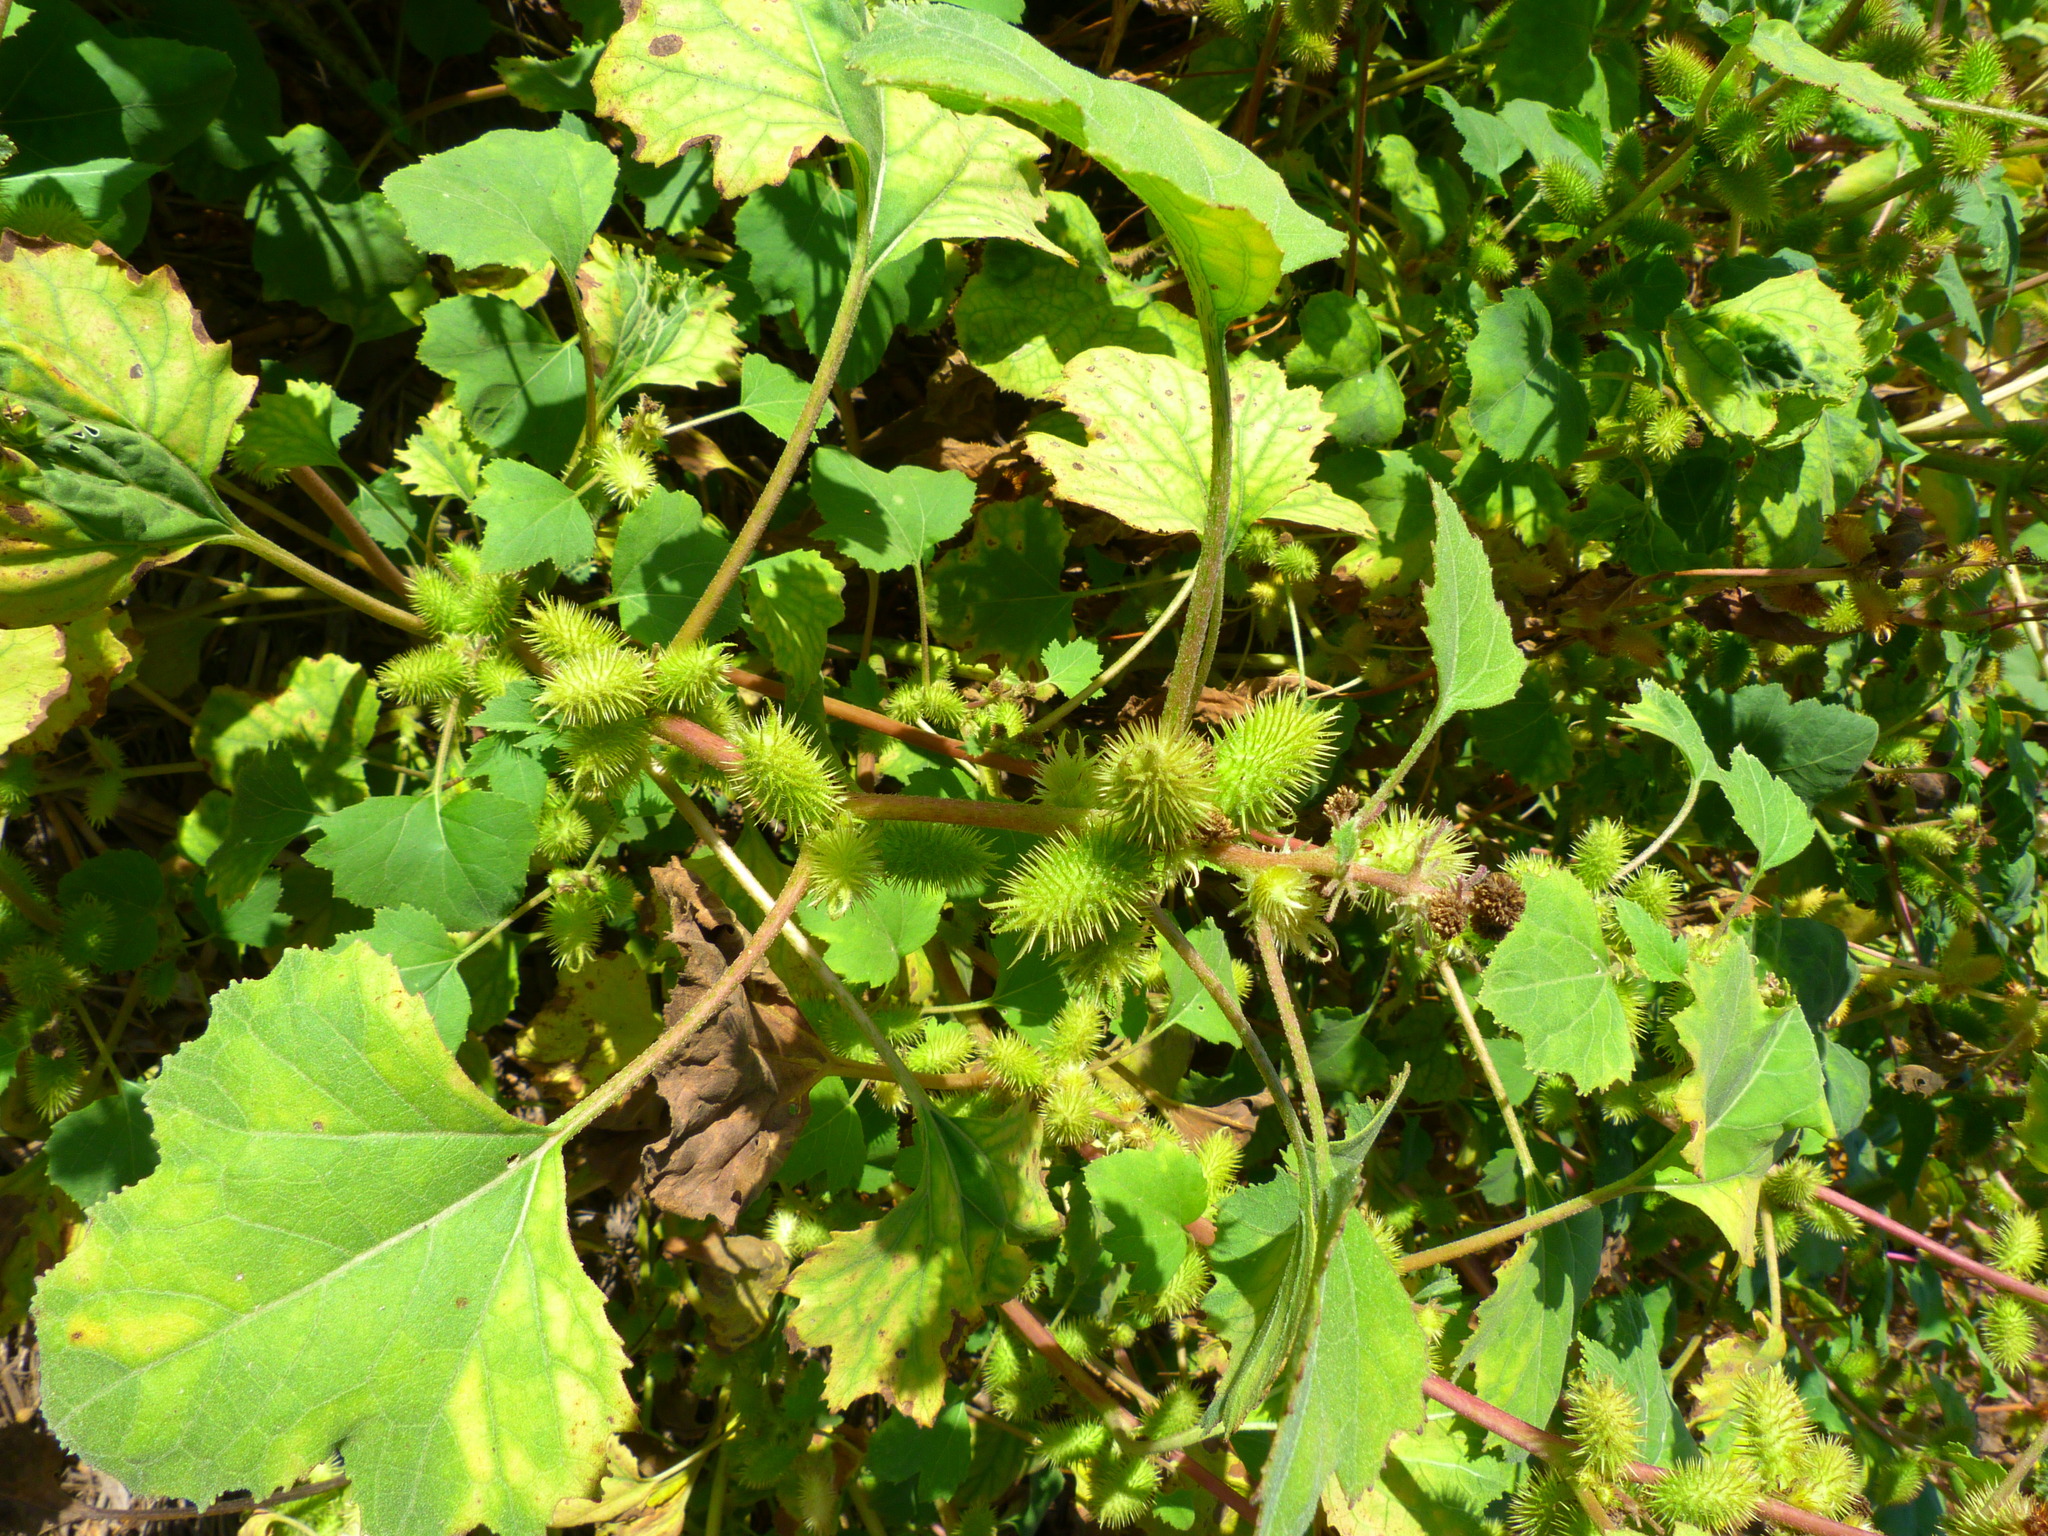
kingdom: Plantae
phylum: Tracheophyta
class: Magnoliopsida
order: Asterales
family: Asteraceae
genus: Xanthium
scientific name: Xanthium strumarium
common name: Rough cocklebur
